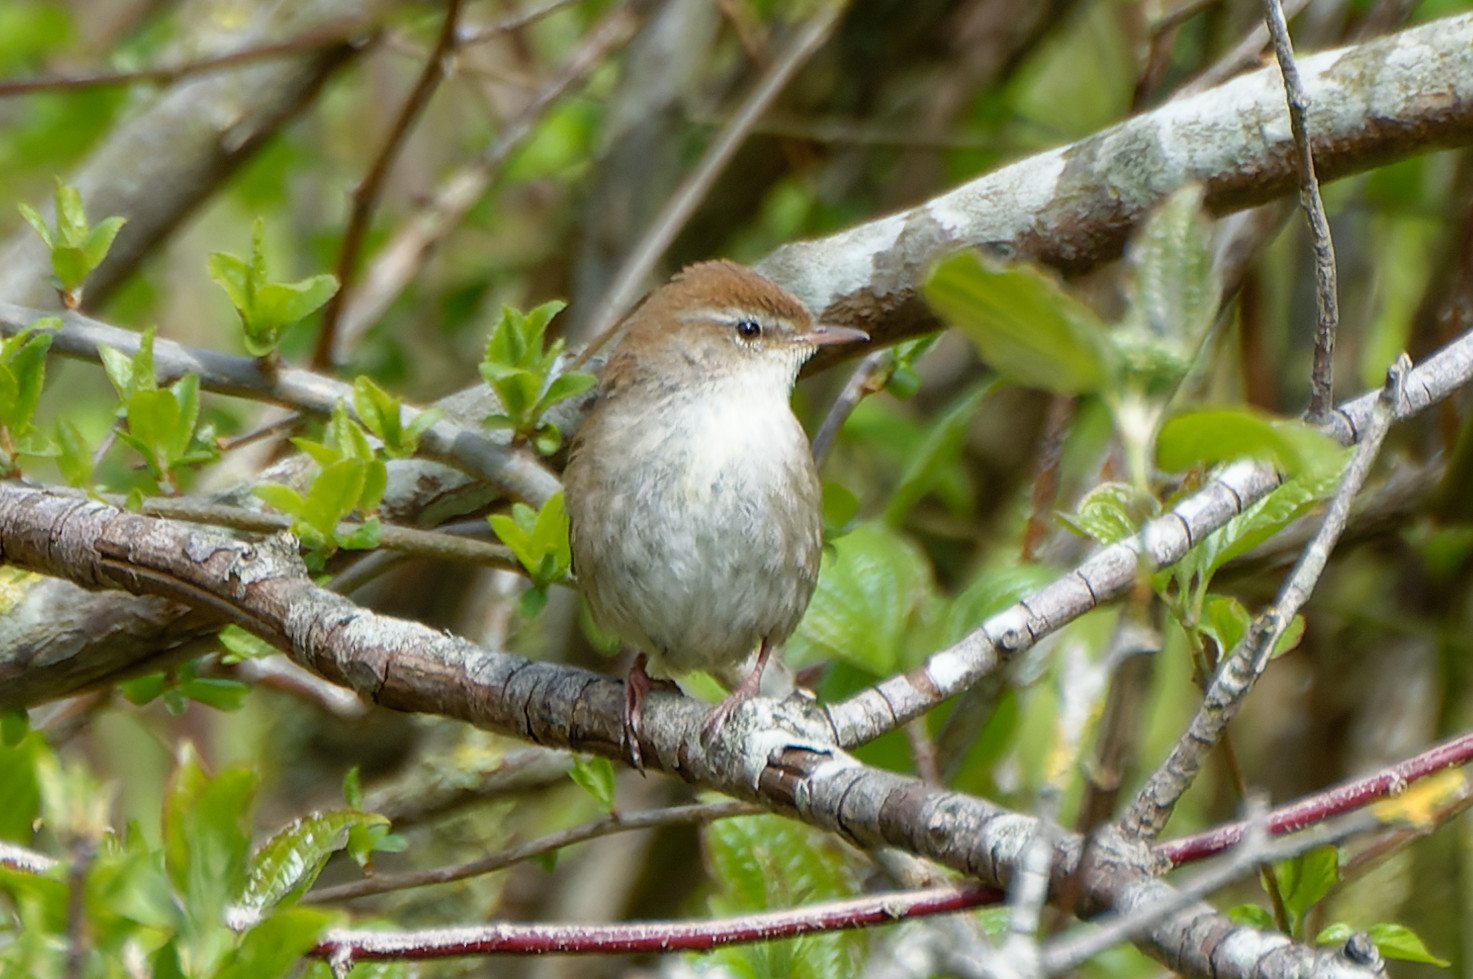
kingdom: Animalia
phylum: Chordata
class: Aves
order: Passeriformes
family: Cettiidae
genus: Cettia
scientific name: Cettia cetti
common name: Cetti's warbler
